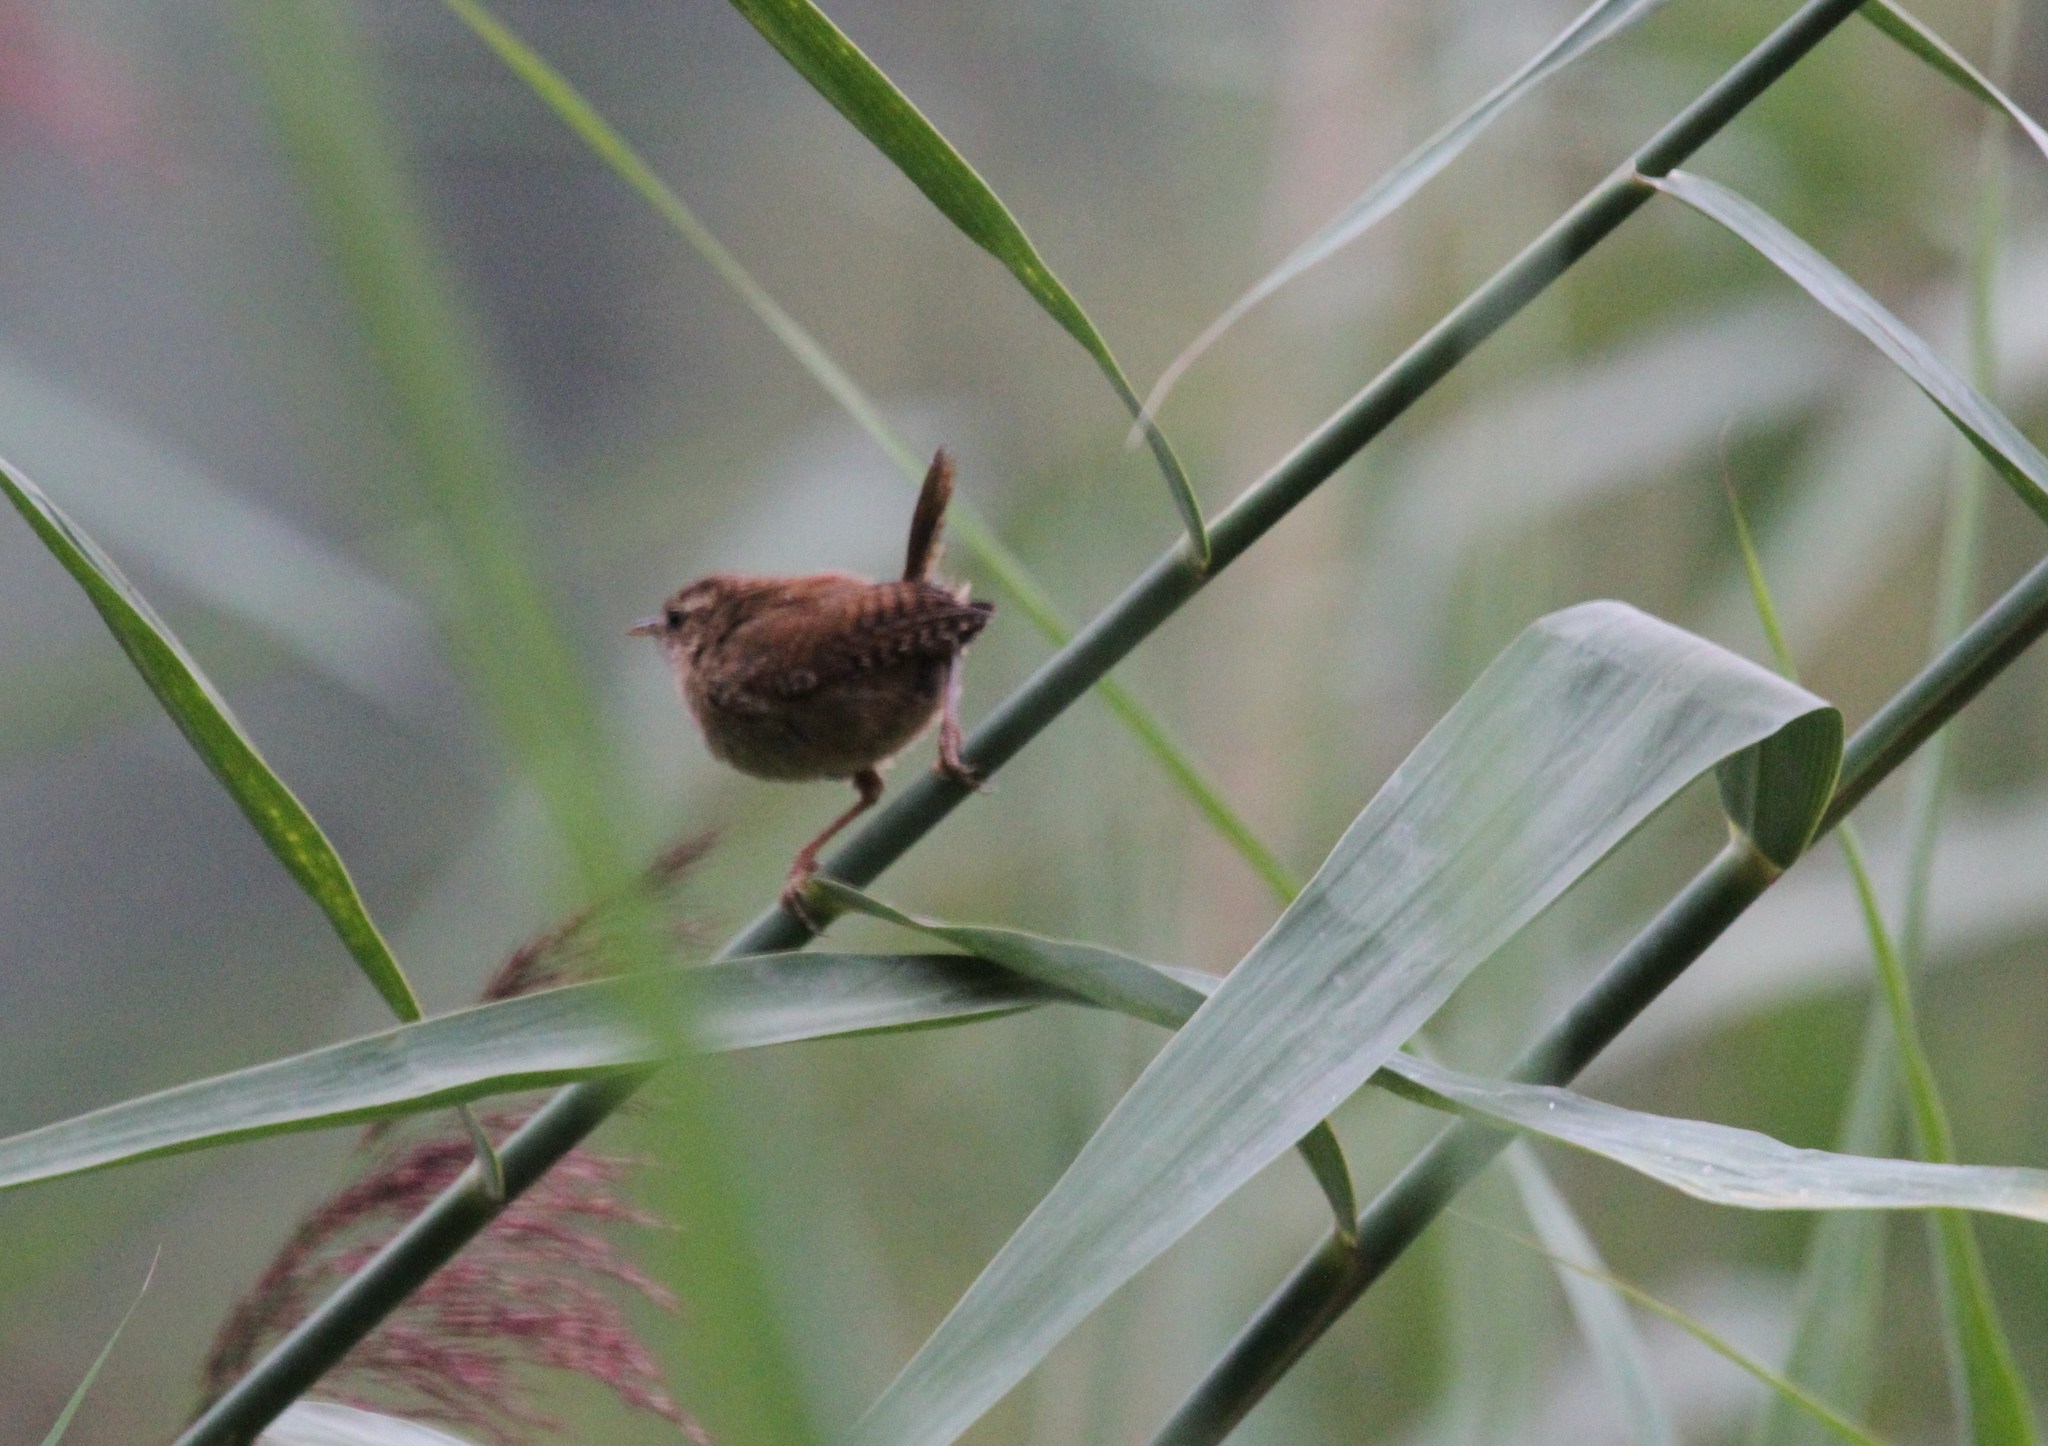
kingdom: Animalia
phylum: Chordata
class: Aves
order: Passeriformes
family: Troglodytidae
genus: Troglodytes
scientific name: Troglodytes troglodytes
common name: Eurasian wren
